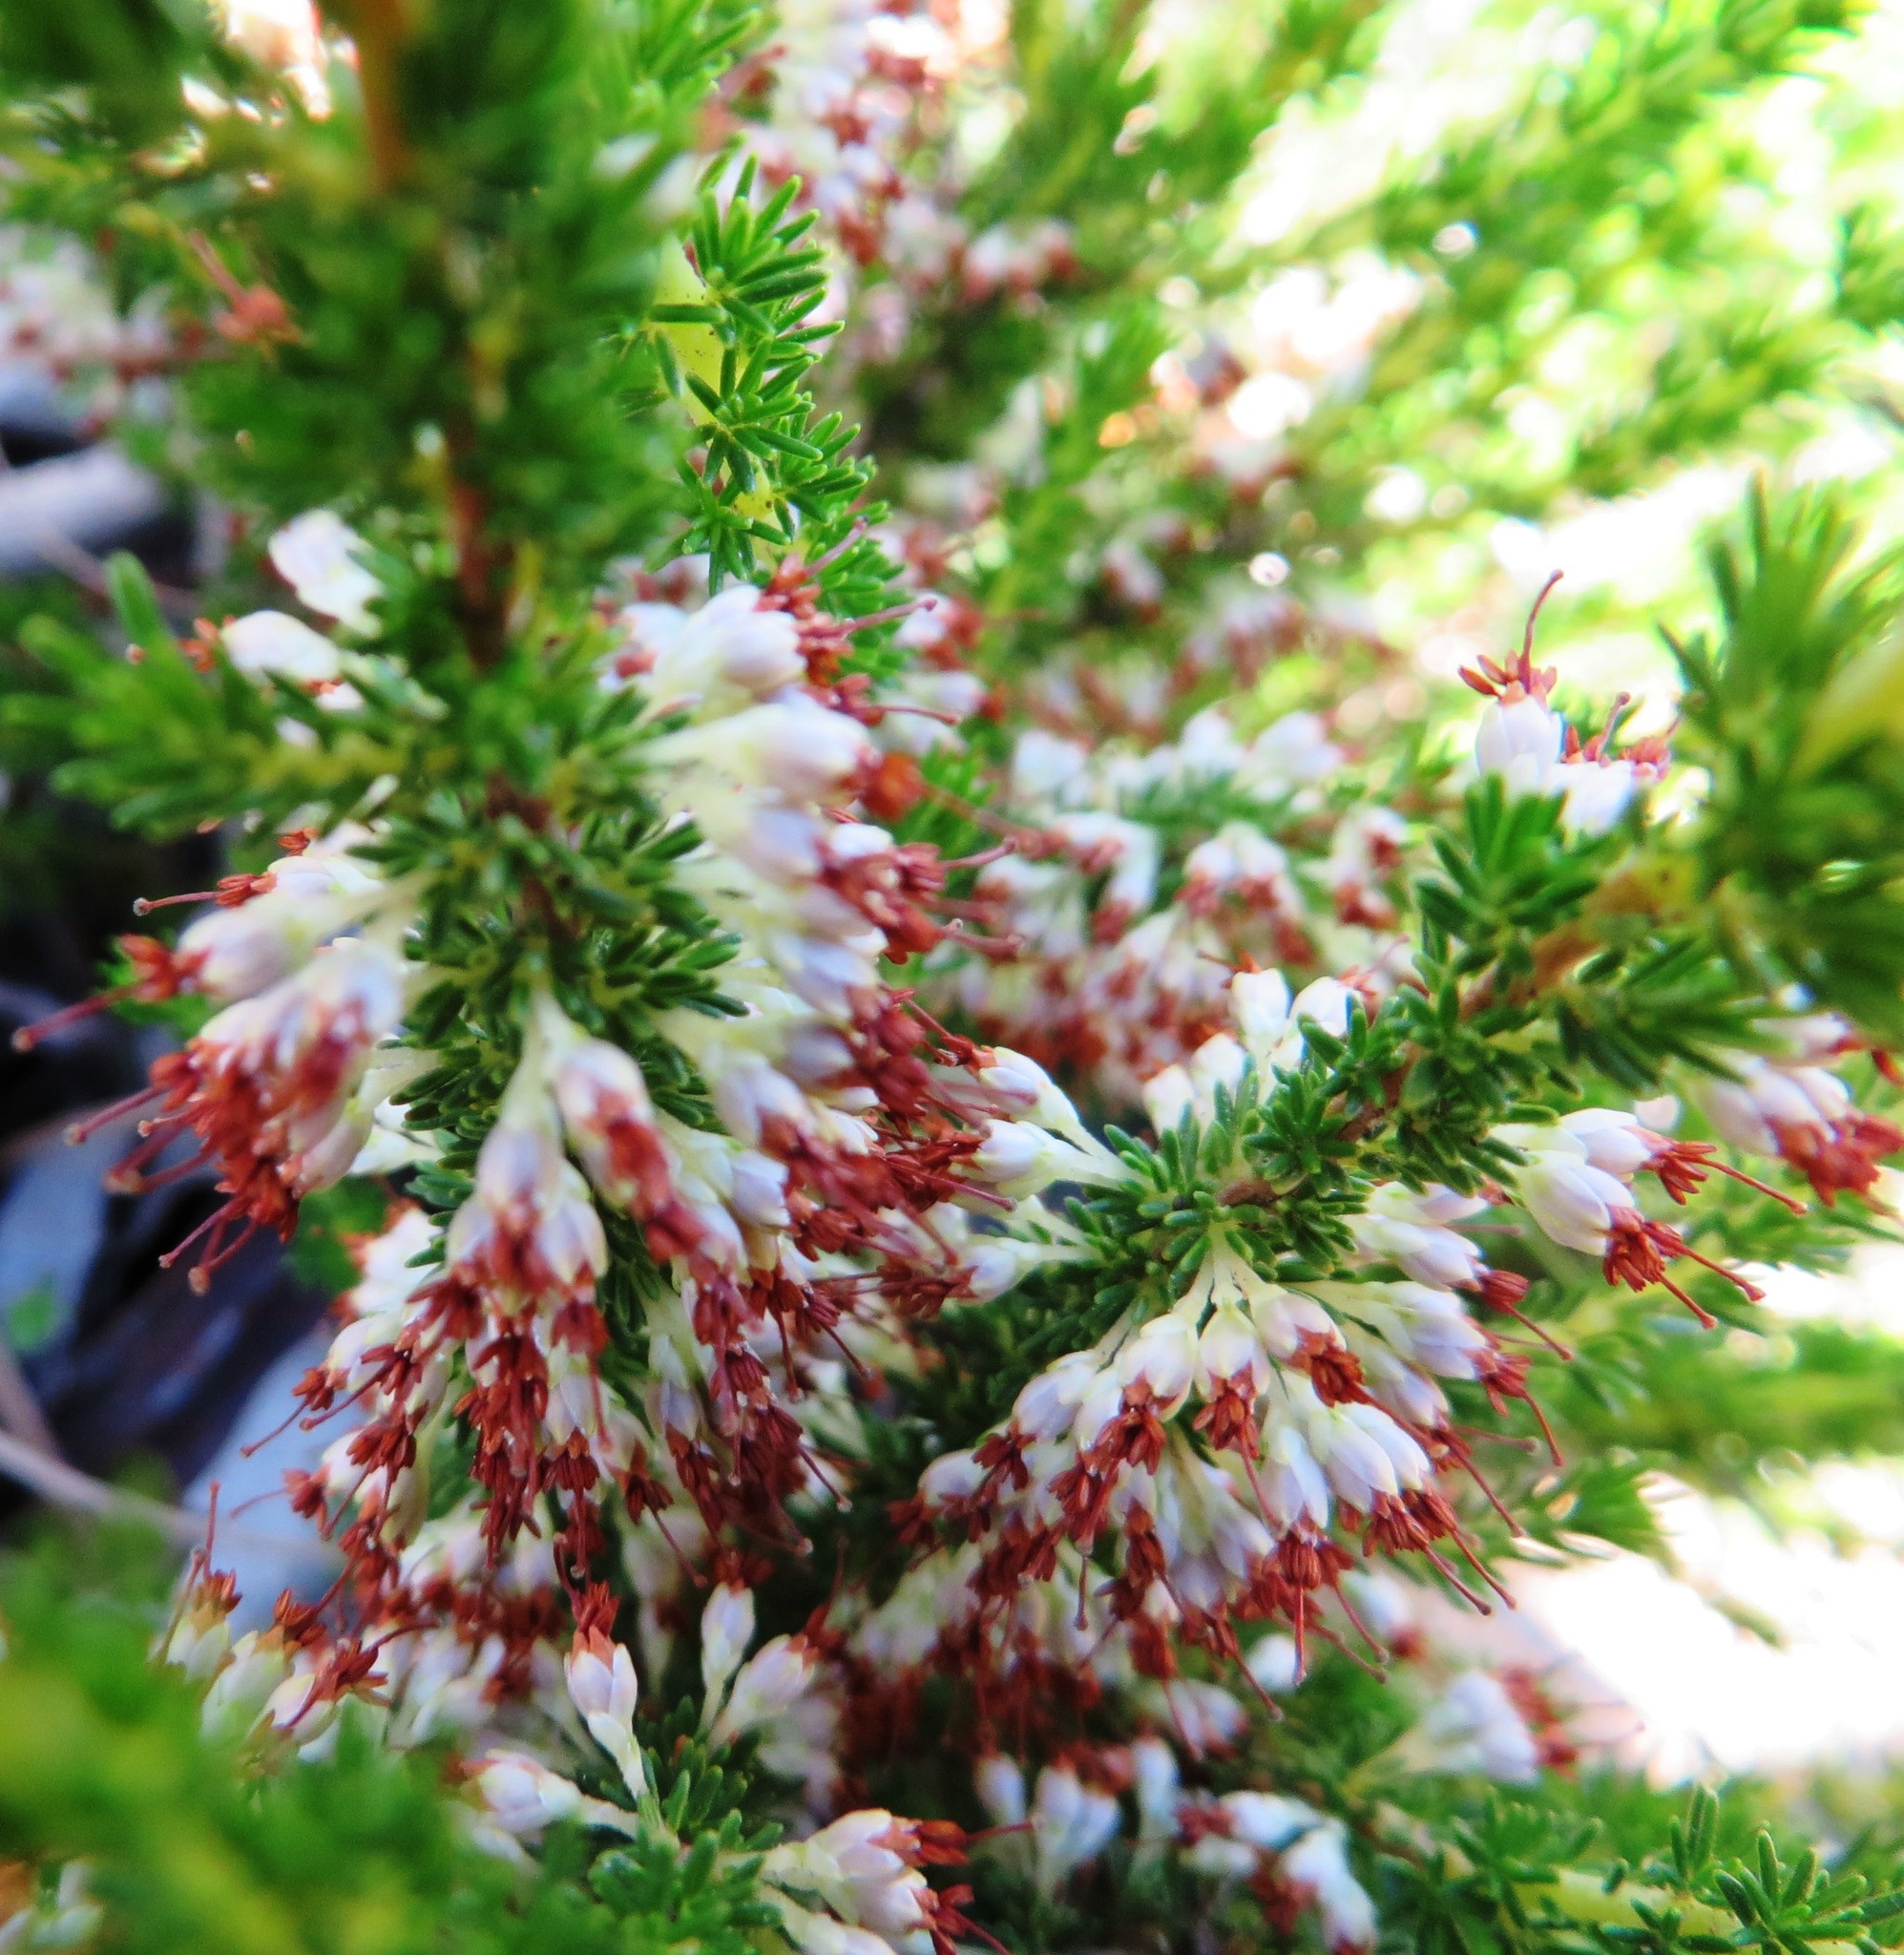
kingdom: Plantae
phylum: Tracheophyta
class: Magnoliopsida
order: Ericales
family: Ericaceae
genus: Erica
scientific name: Erica imbricata
